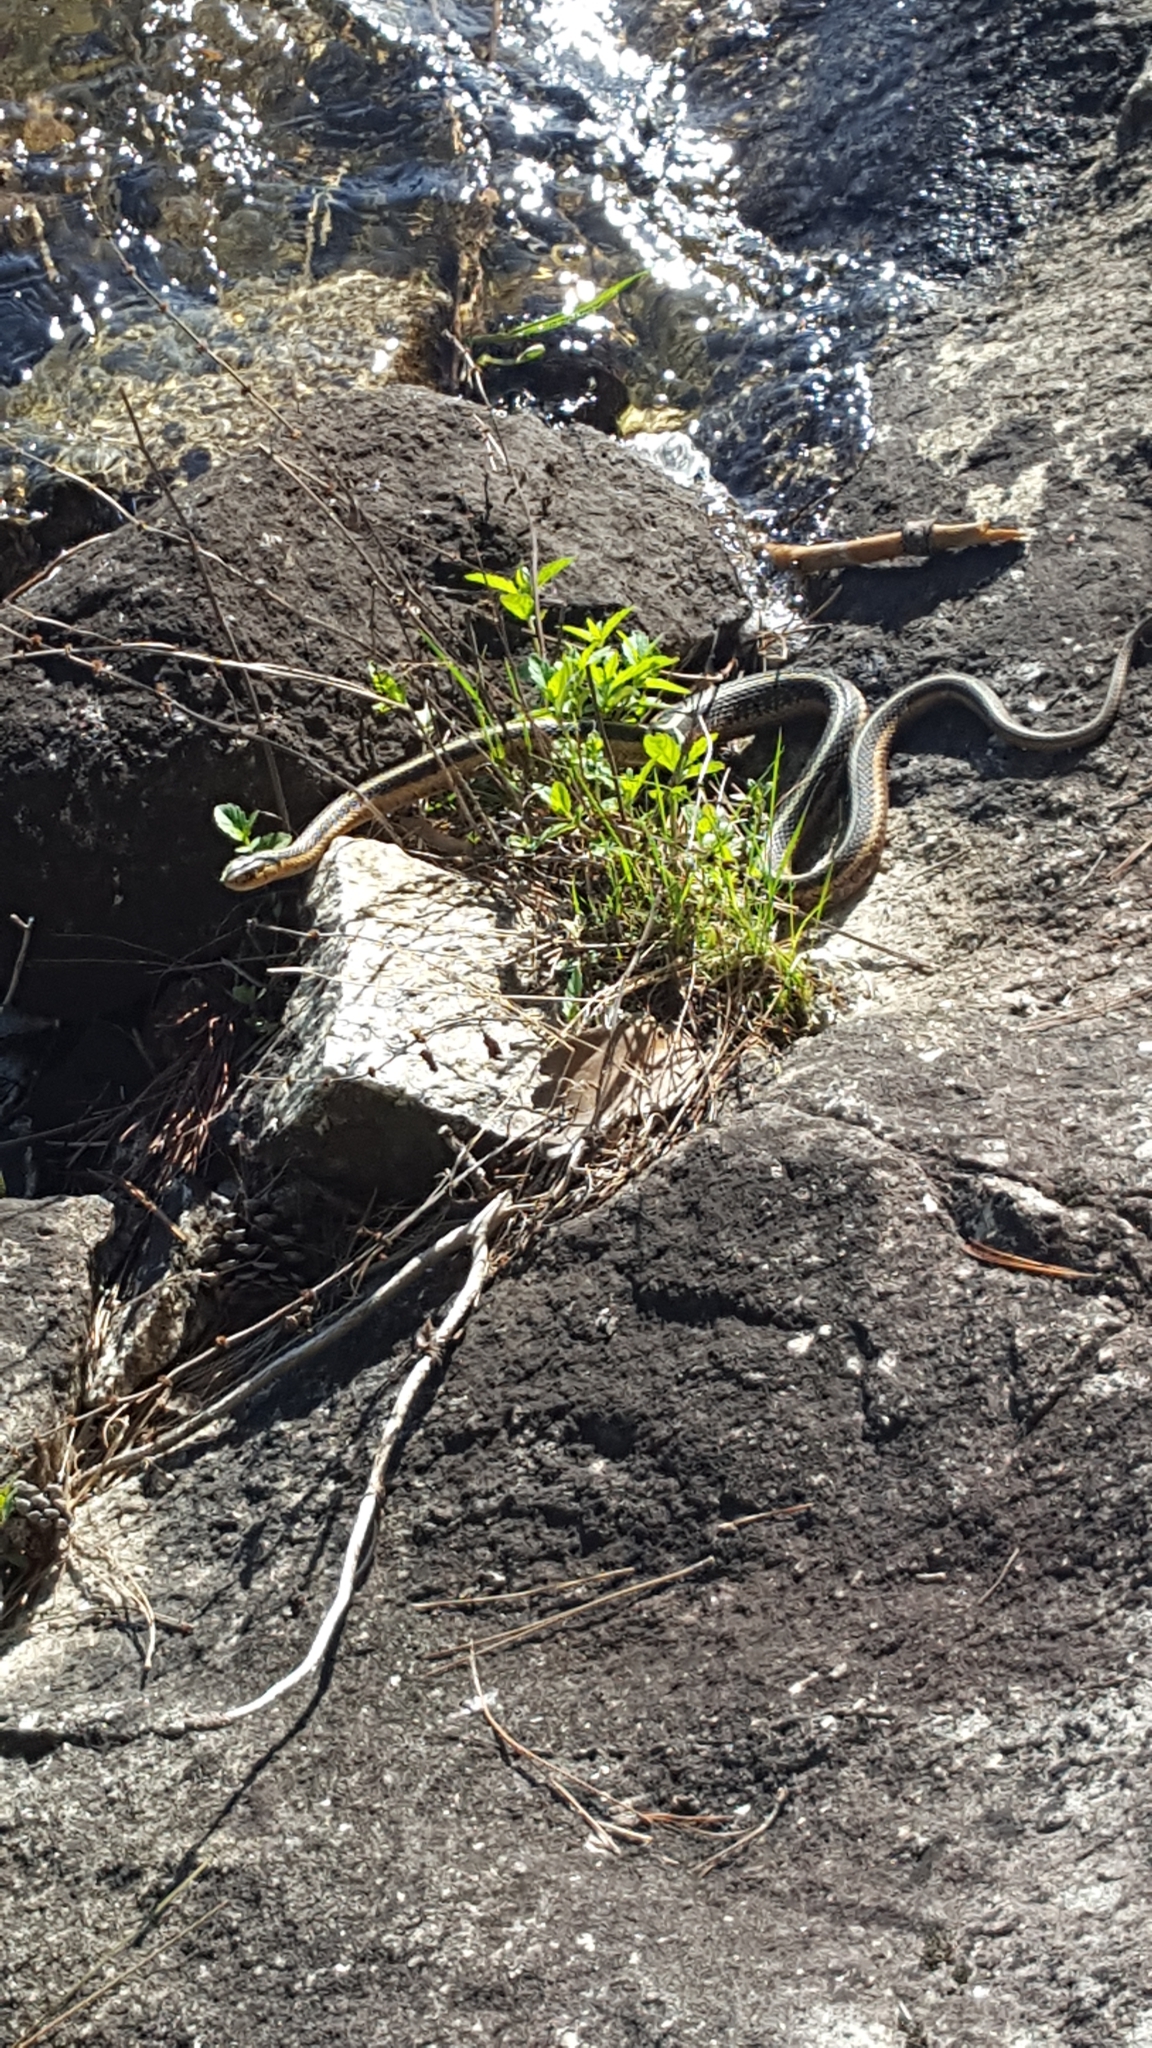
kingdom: Animalia
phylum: Chordata
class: Squamata
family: Colubridae
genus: Thamnophis
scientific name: Thamnophis sirtalis
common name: Common garter snake
